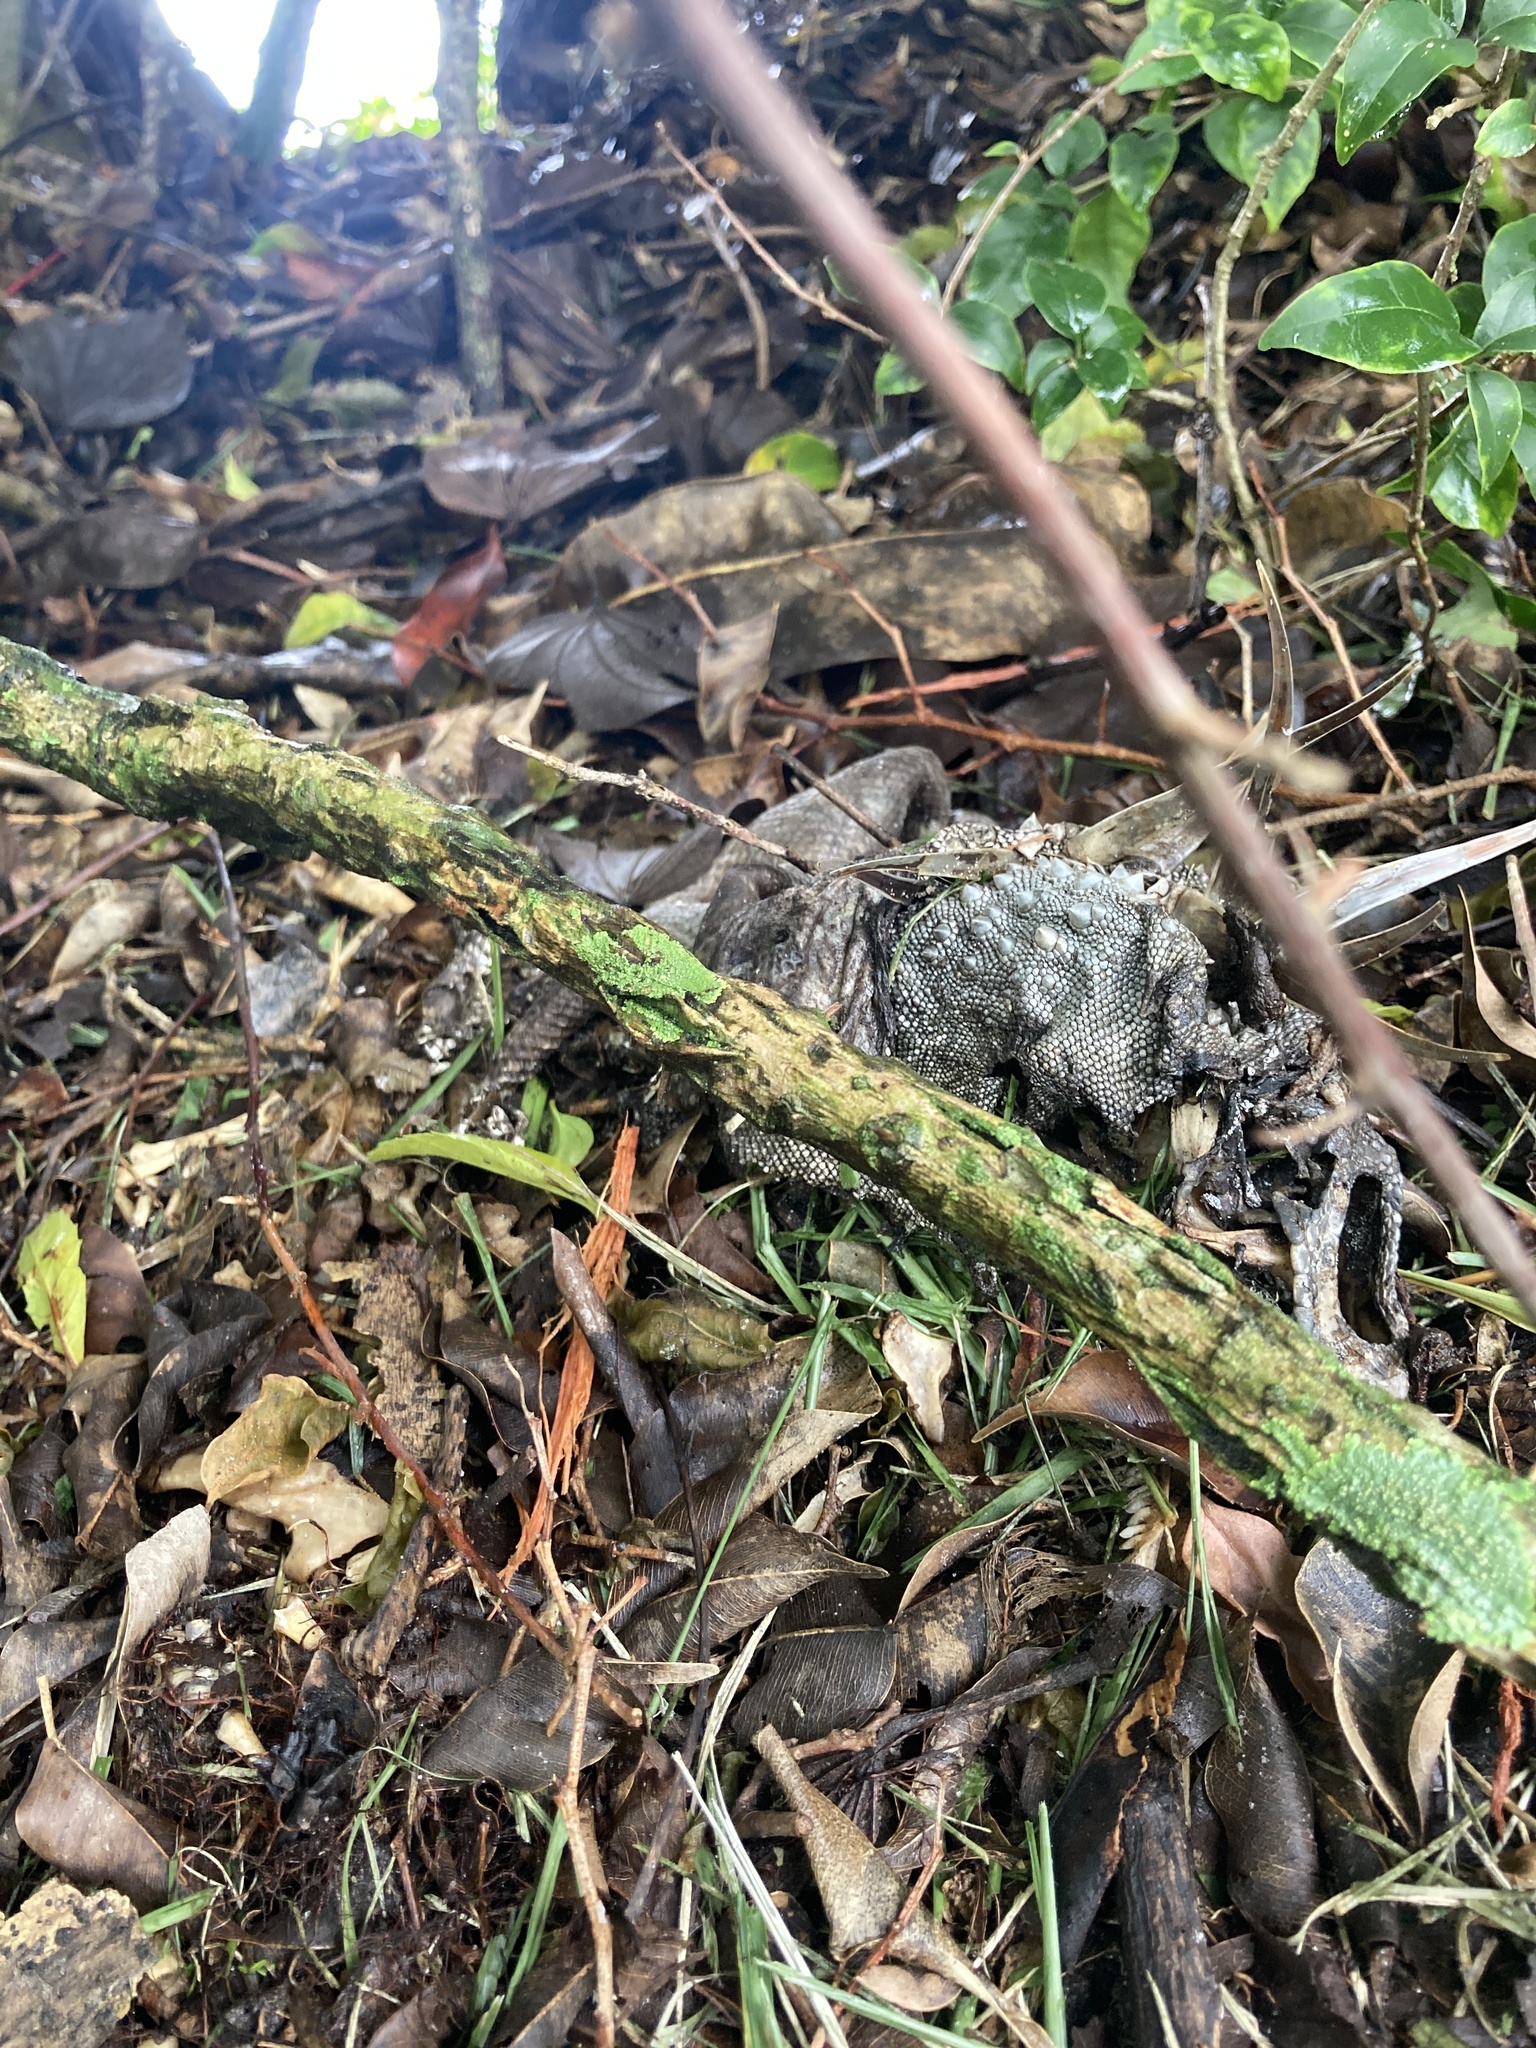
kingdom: Animalia
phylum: Chordata
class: Squamata
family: Iguanidae
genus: Iguana
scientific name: Iguana iguana
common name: Green iguana
